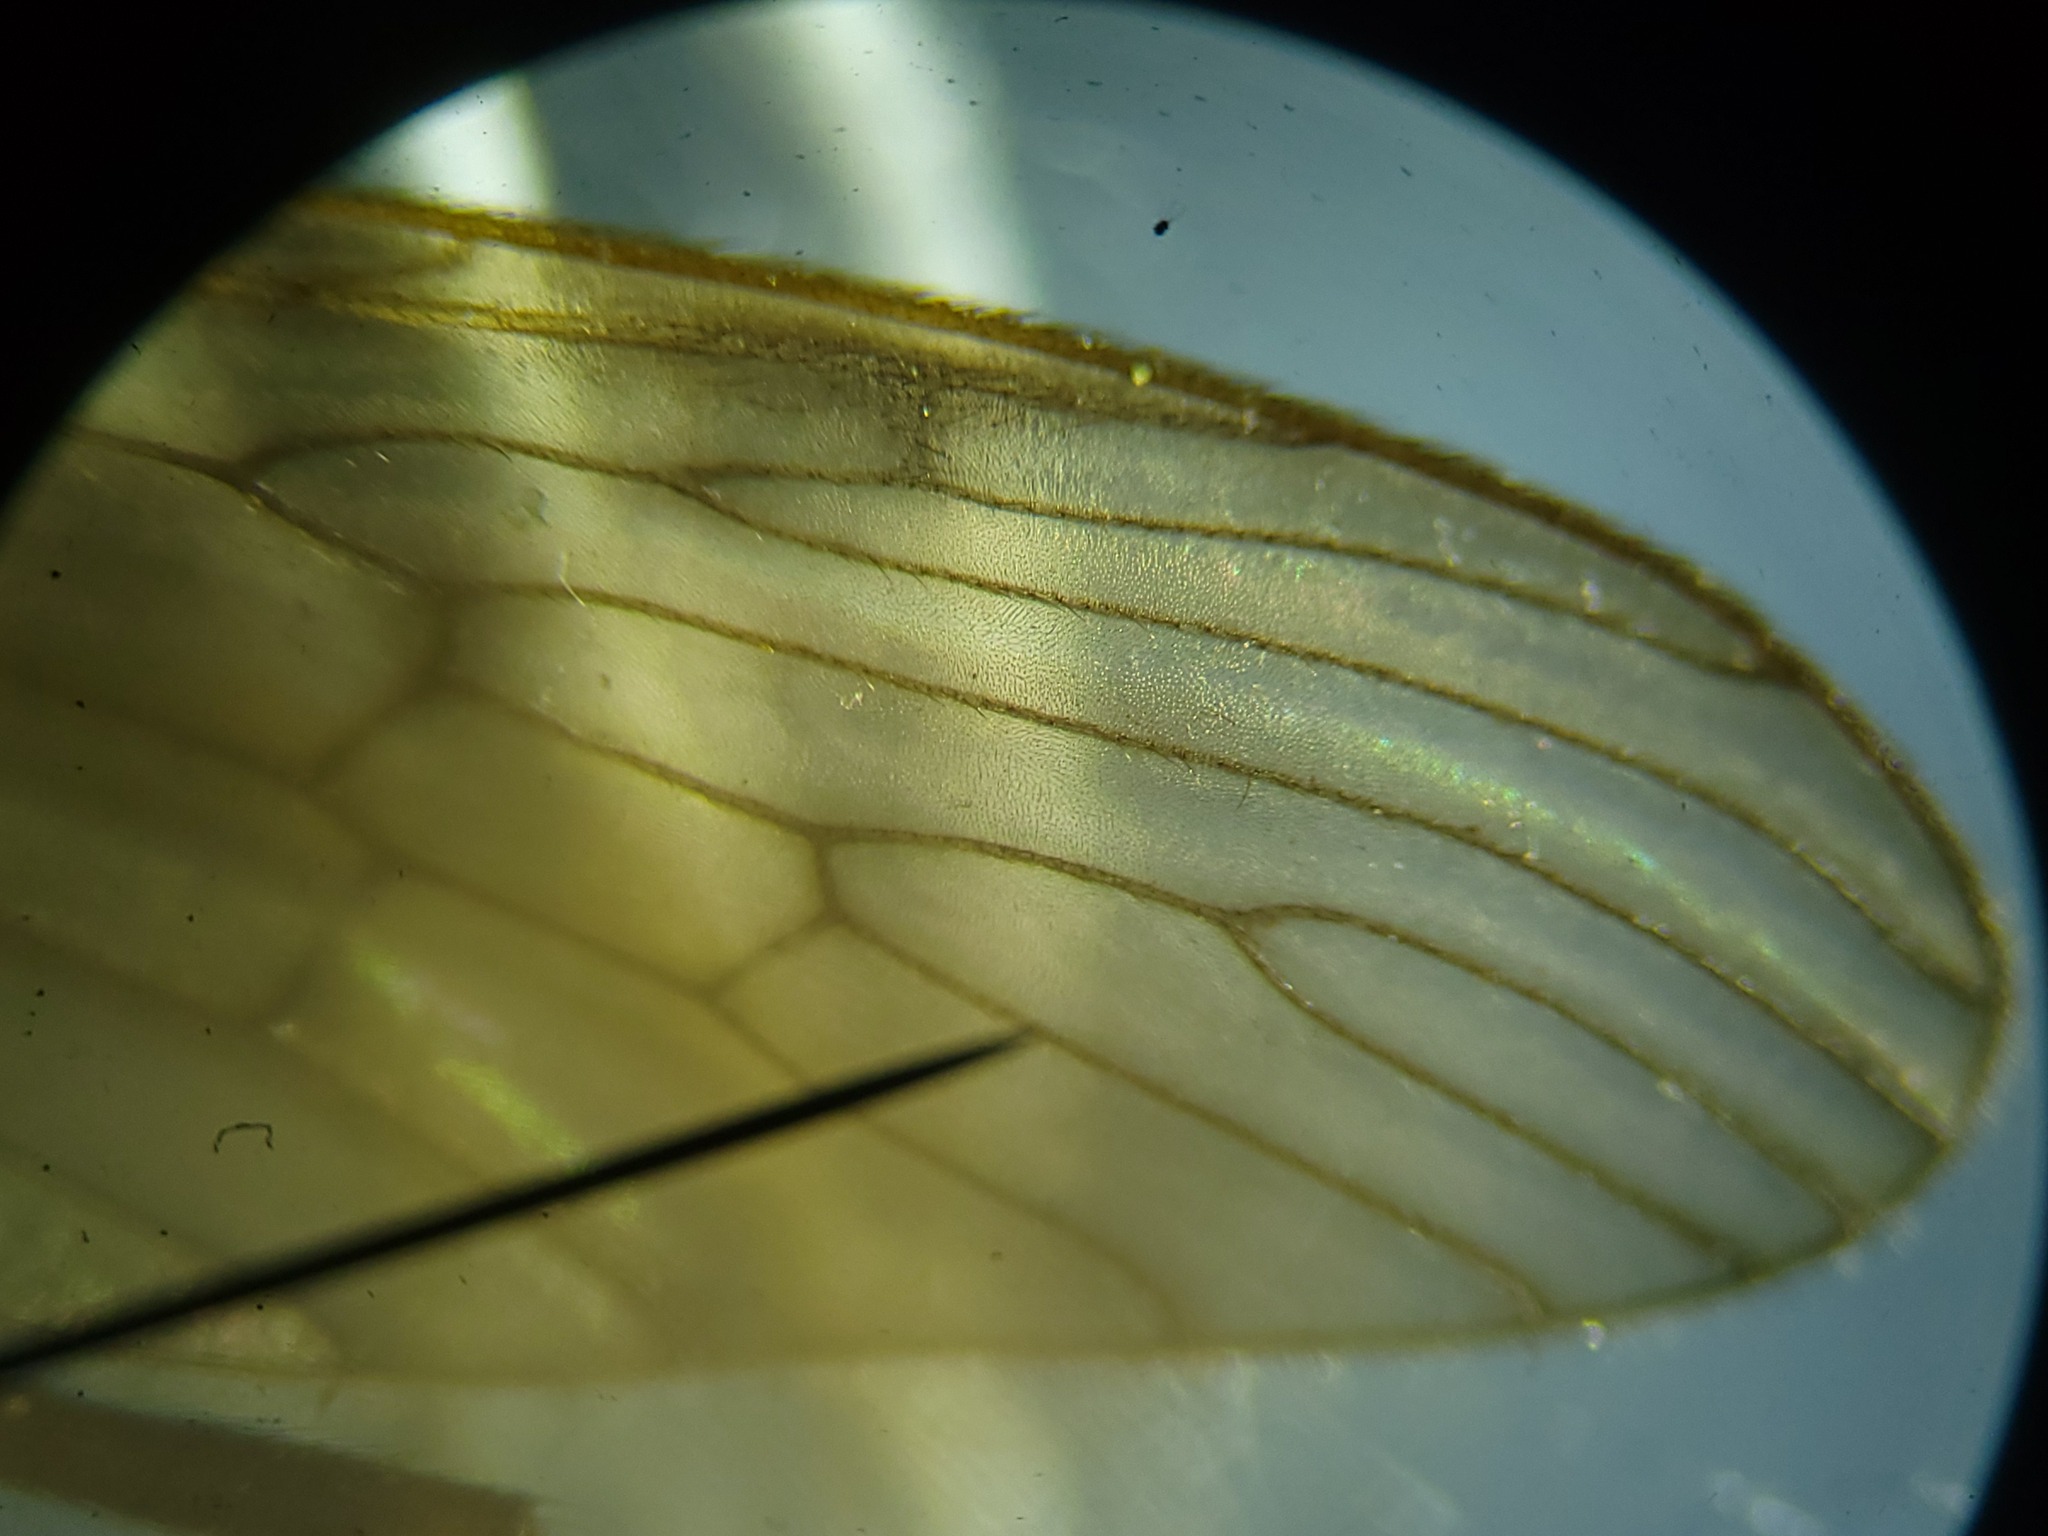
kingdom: Animalia
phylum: Arthropoda
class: Insecta
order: Diptera
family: Limoniidae
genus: Pseudolimnophila
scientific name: Pseudolimnophila luteipennis
